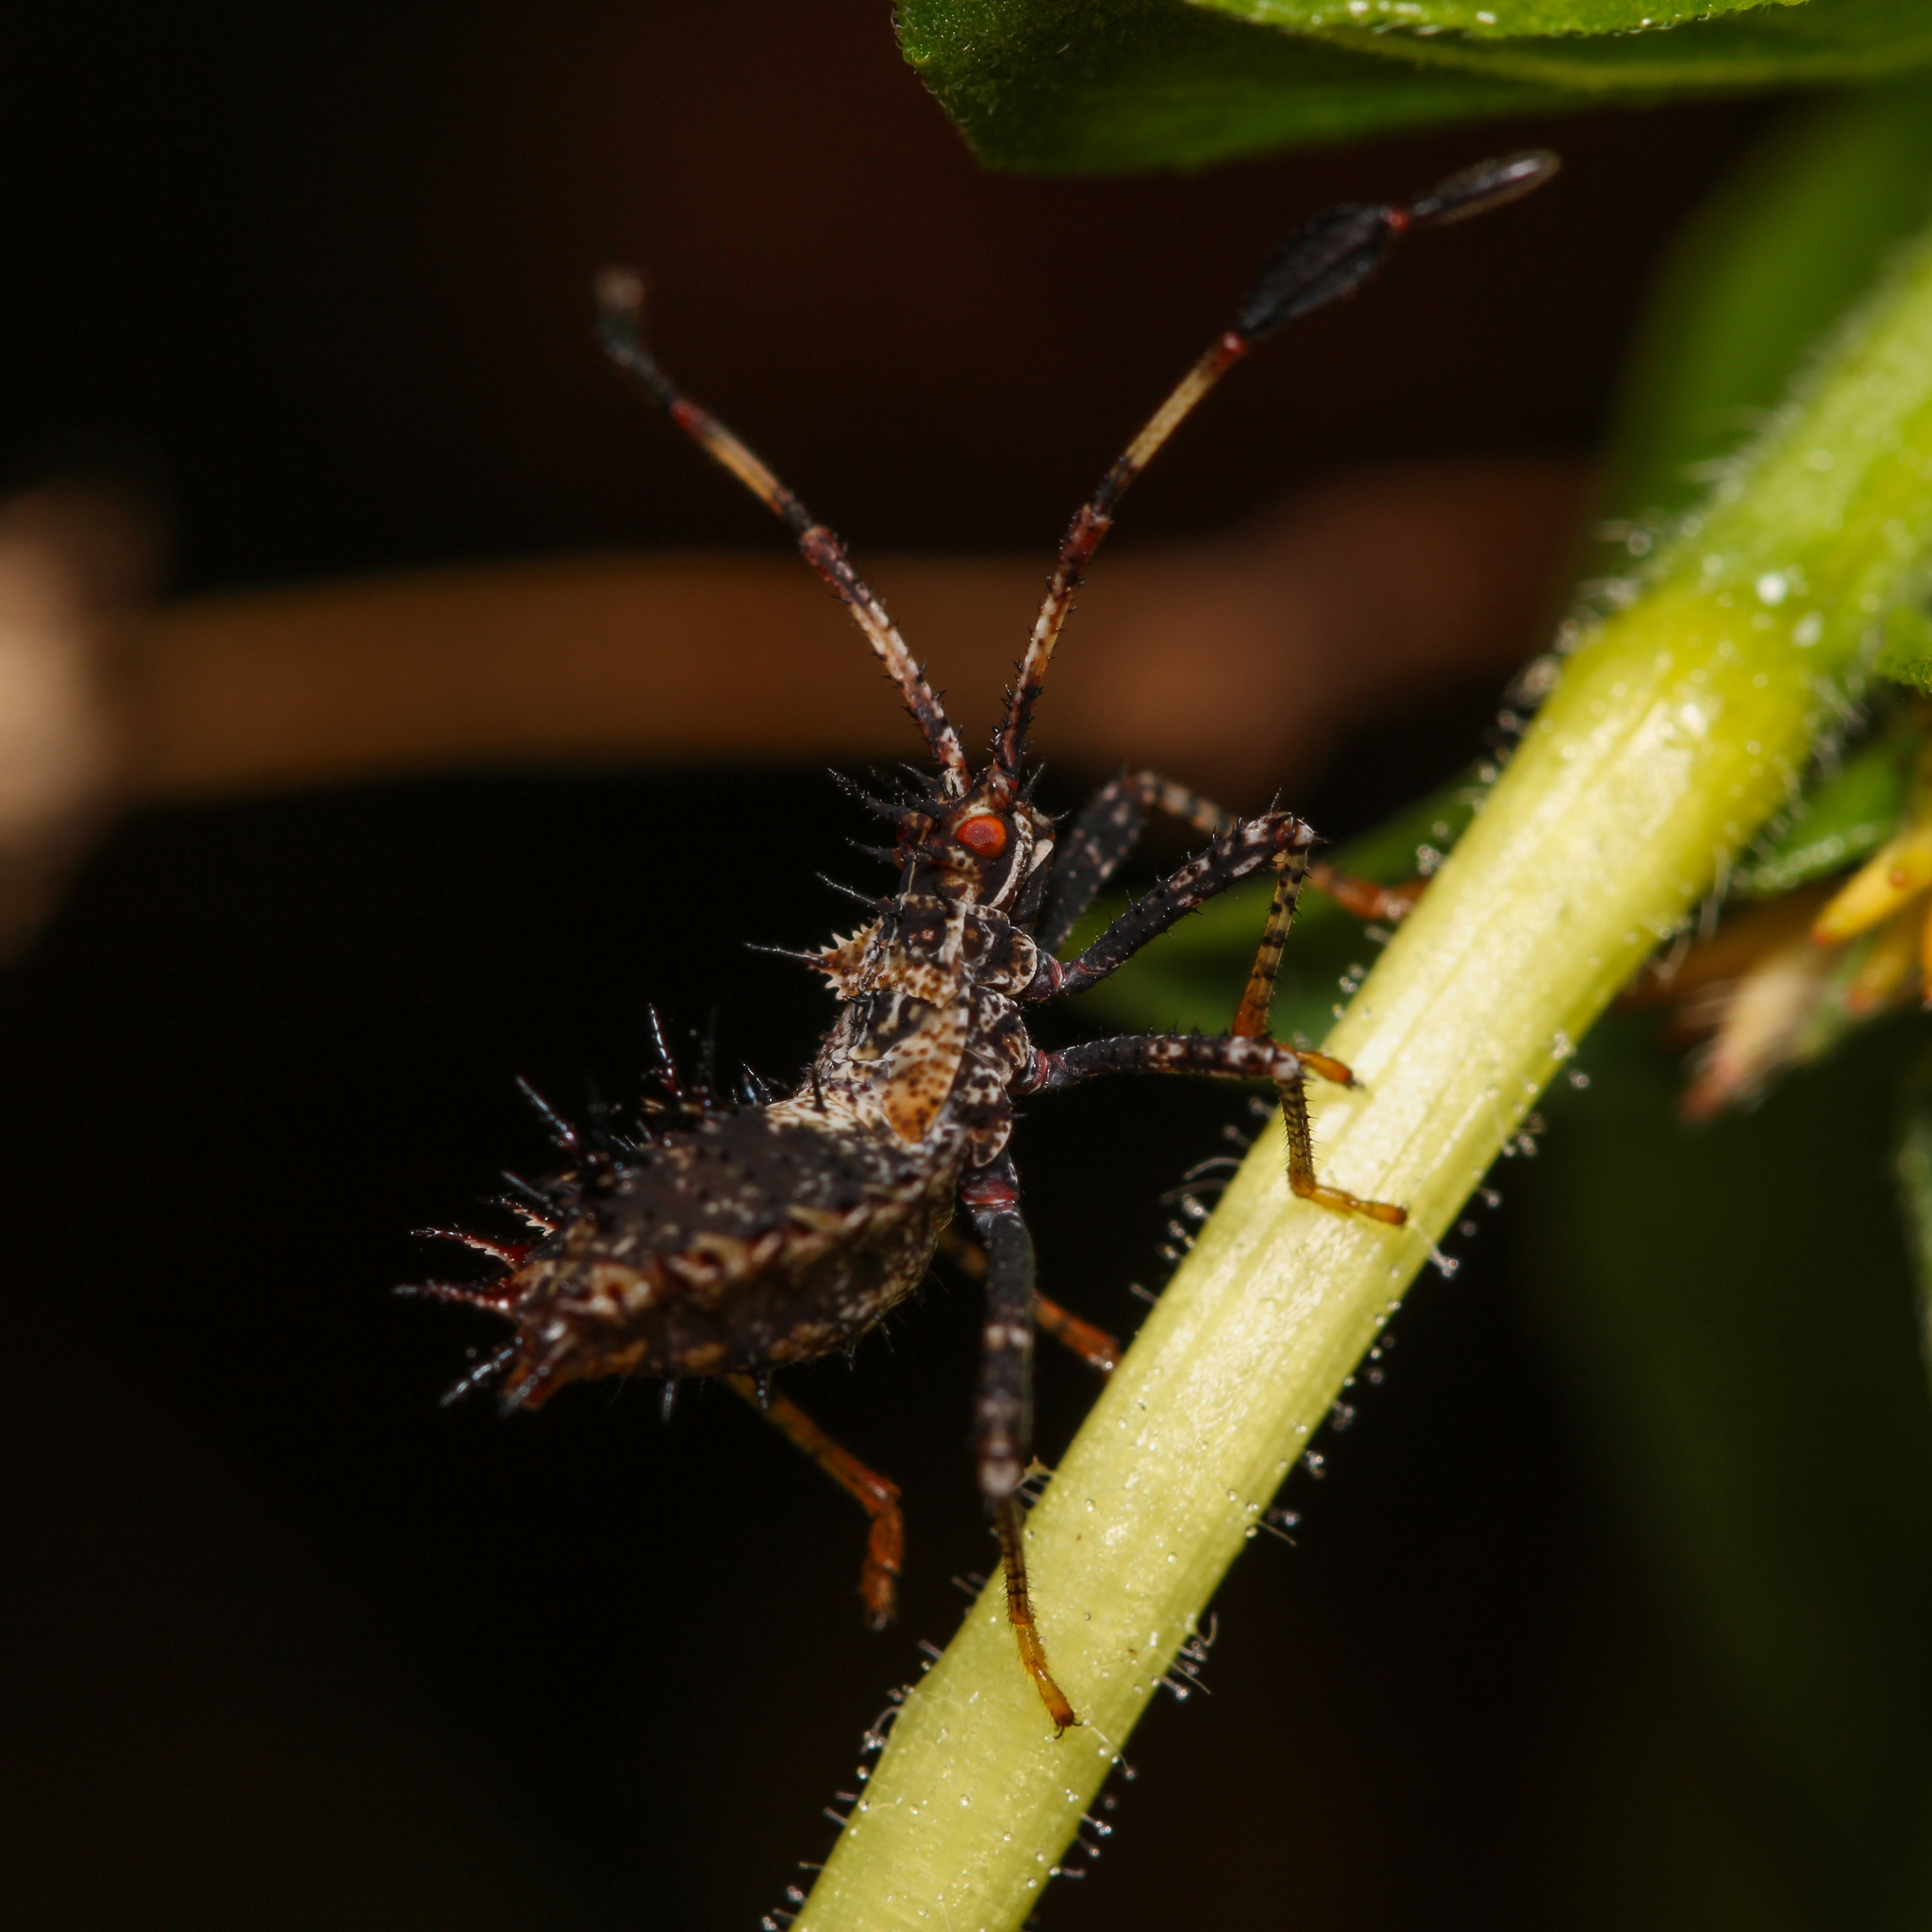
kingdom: Animalia
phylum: Arthropoda
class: Insecta
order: Hemiptera
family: Coreidae
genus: Euthochtha
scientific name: Euthochtha galeator
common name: Helmeted squash bug
